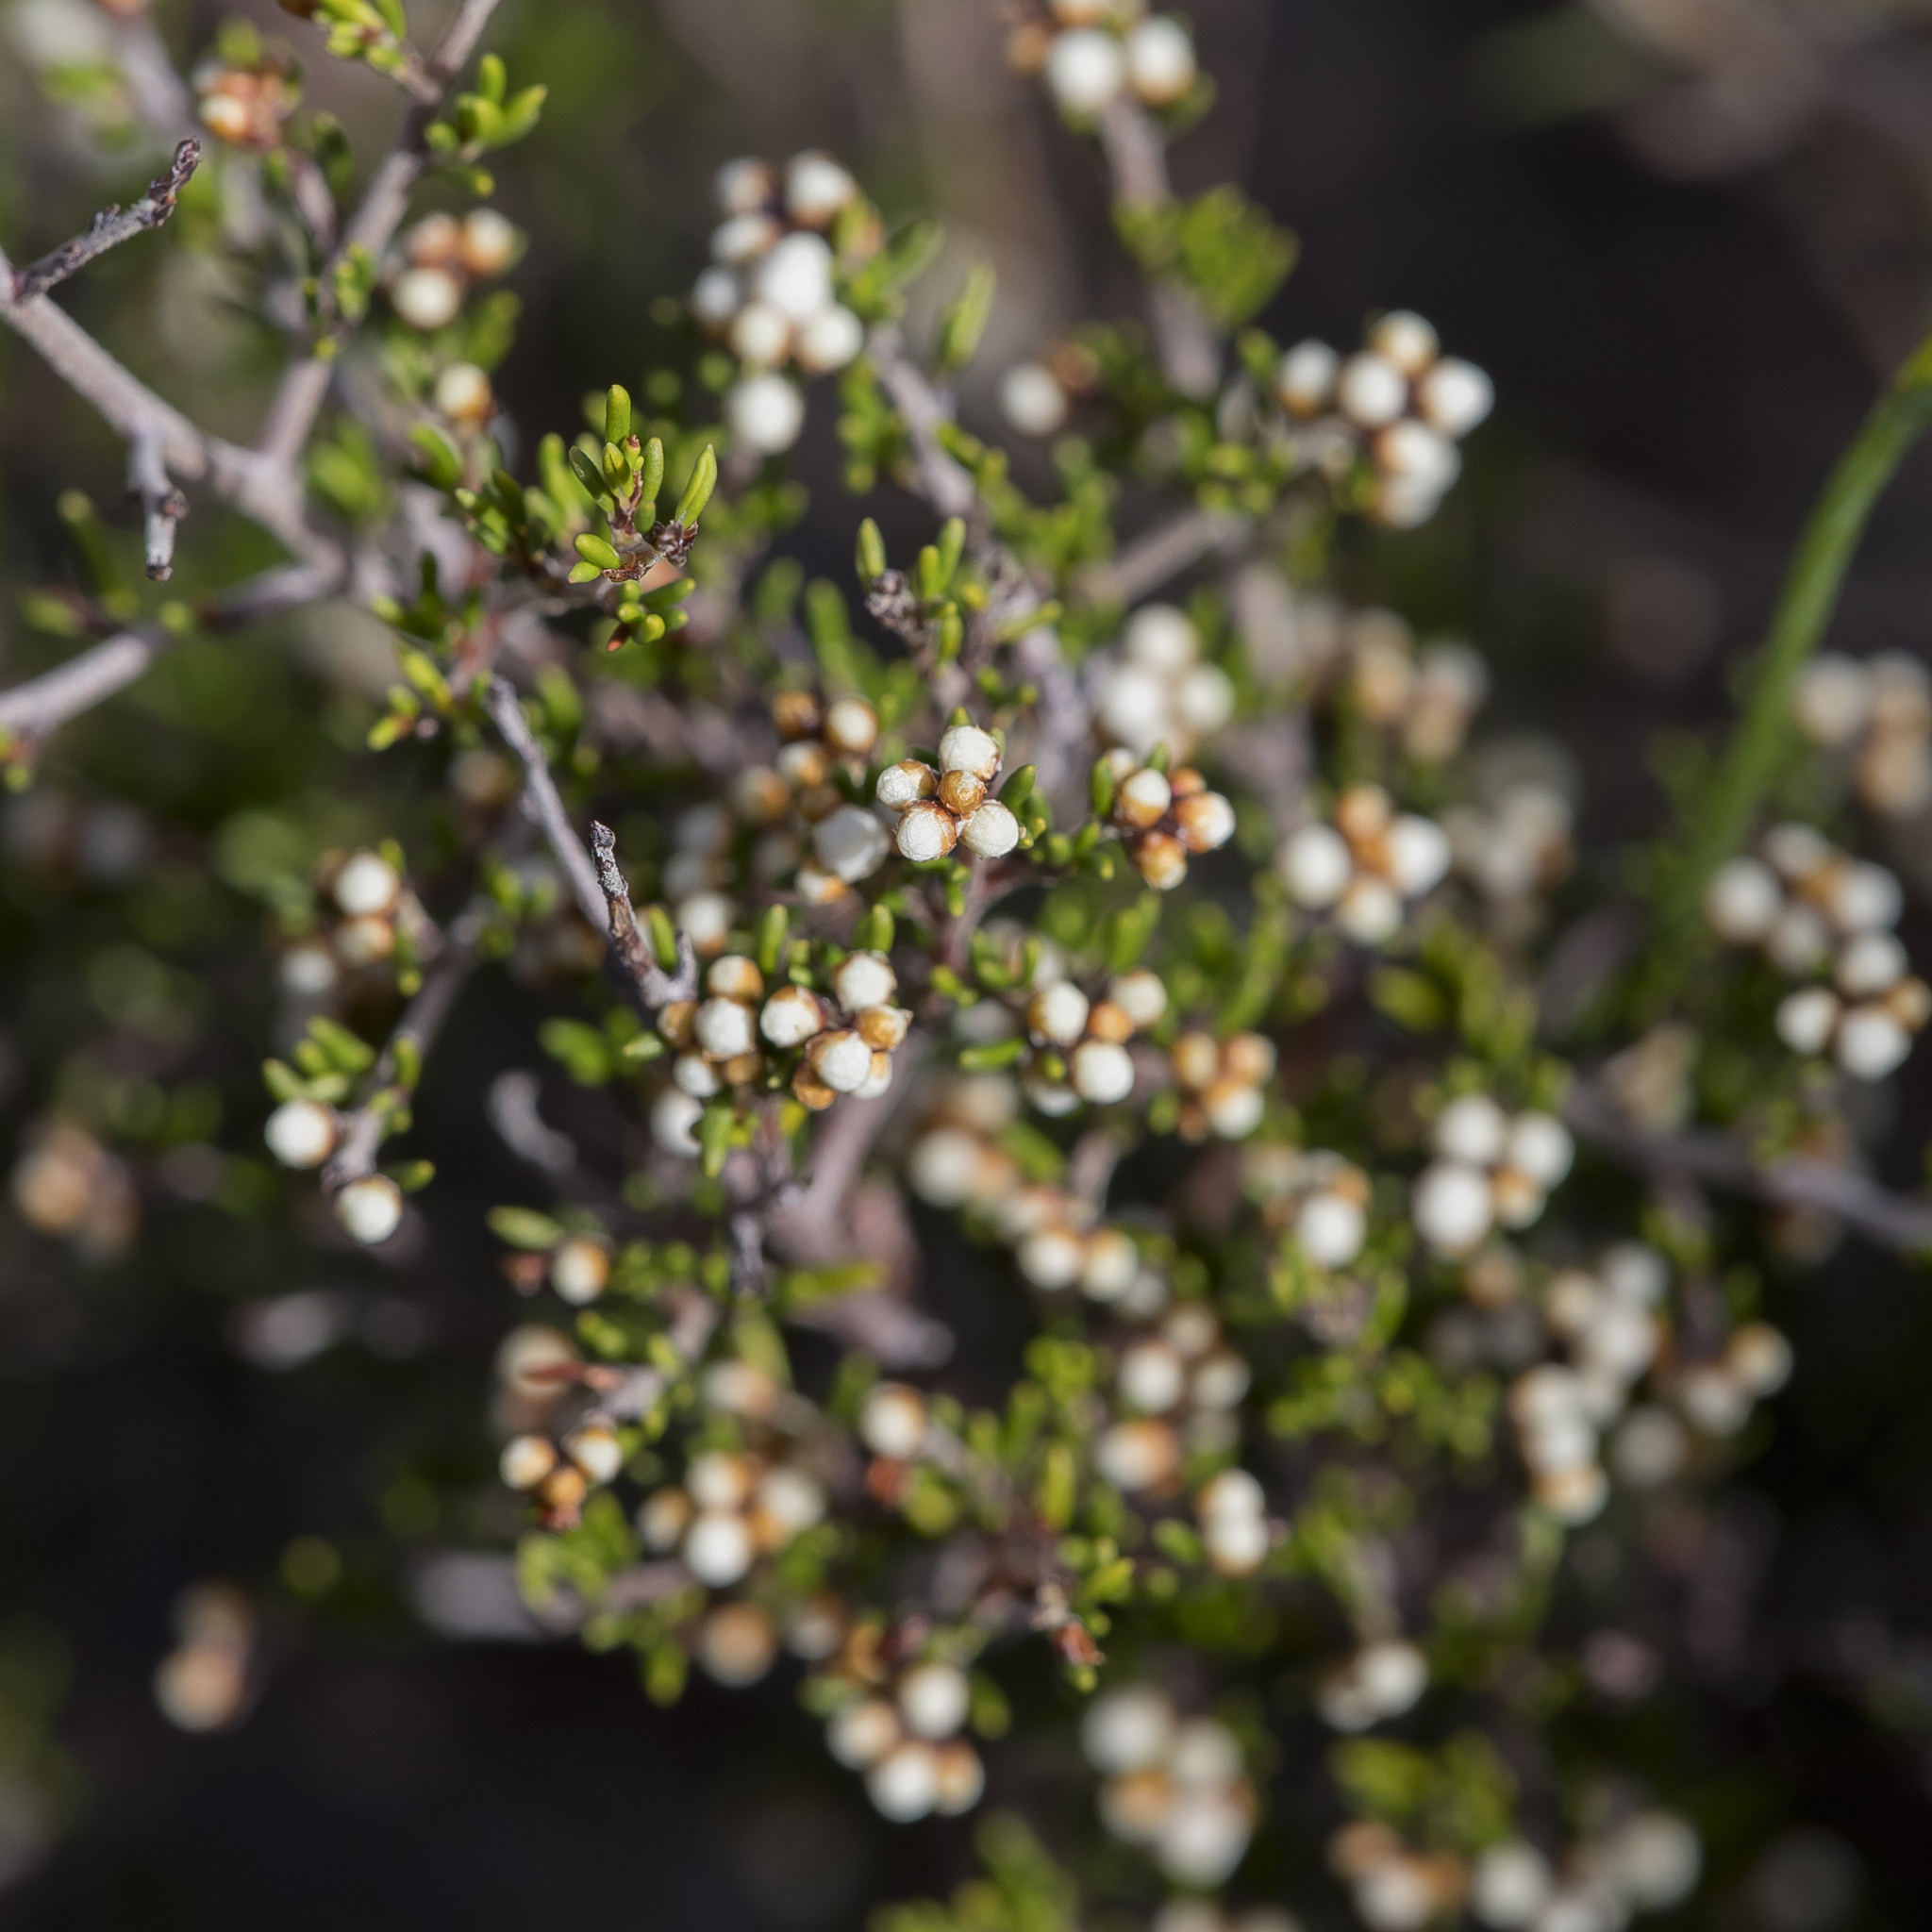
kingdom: Plantae
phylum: Tracheophyta
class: Magnoliopsida
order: Rosales
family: Rhamnaceae
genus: Cryptandra
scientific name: Cryptandra tomentosa
